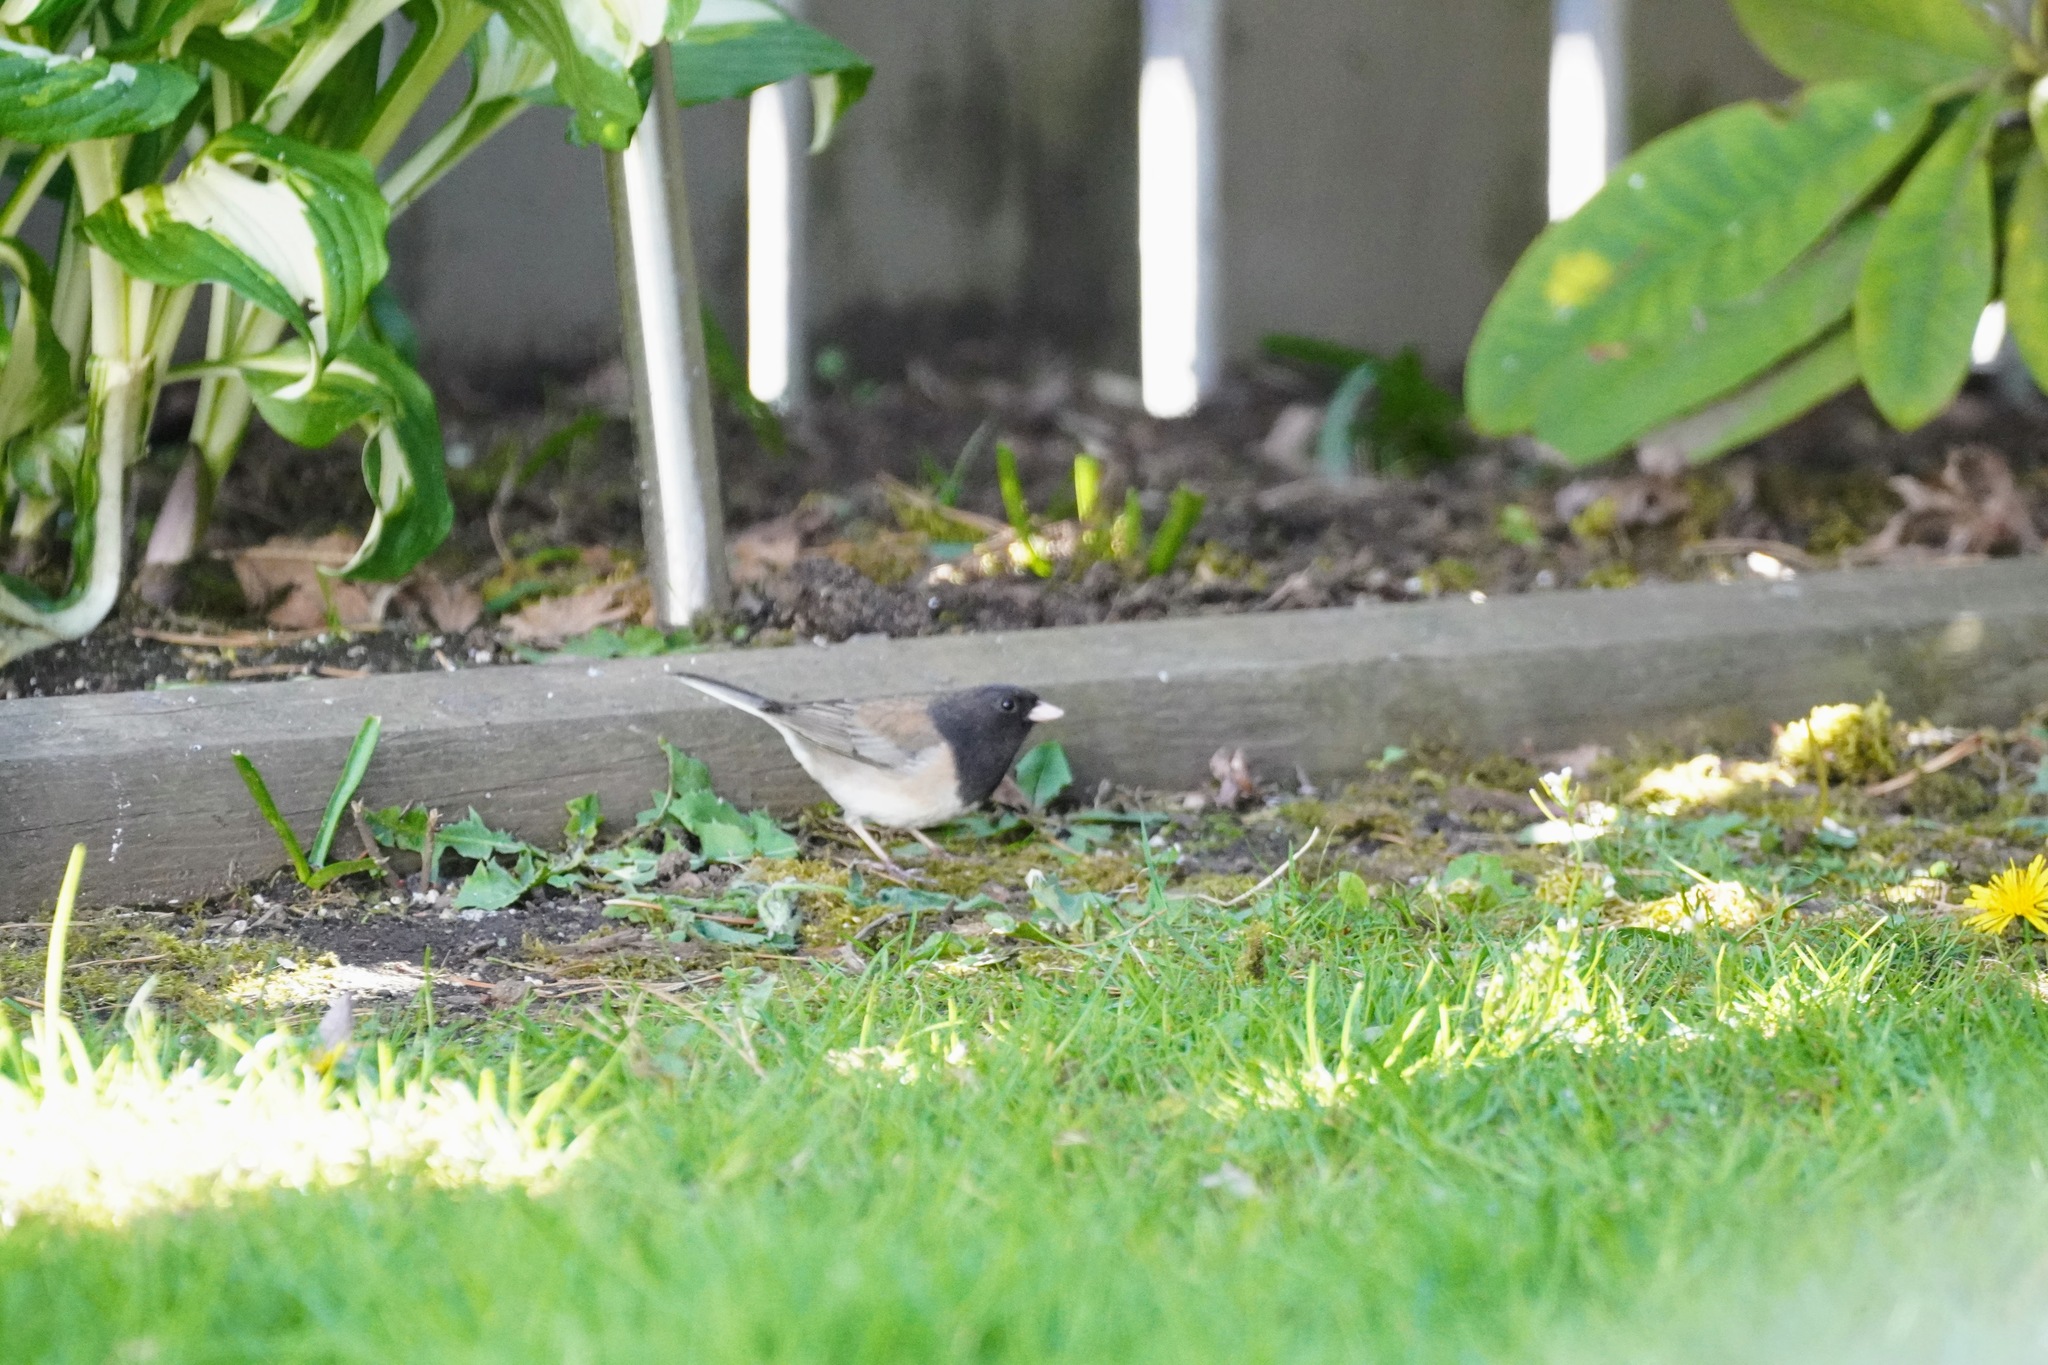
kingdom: Animalia
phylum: Chordata
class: Aves
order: Passeriformes
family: Passerellidae
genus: Junco
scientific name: Junco hyemalis
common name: Dark-eyed junco
